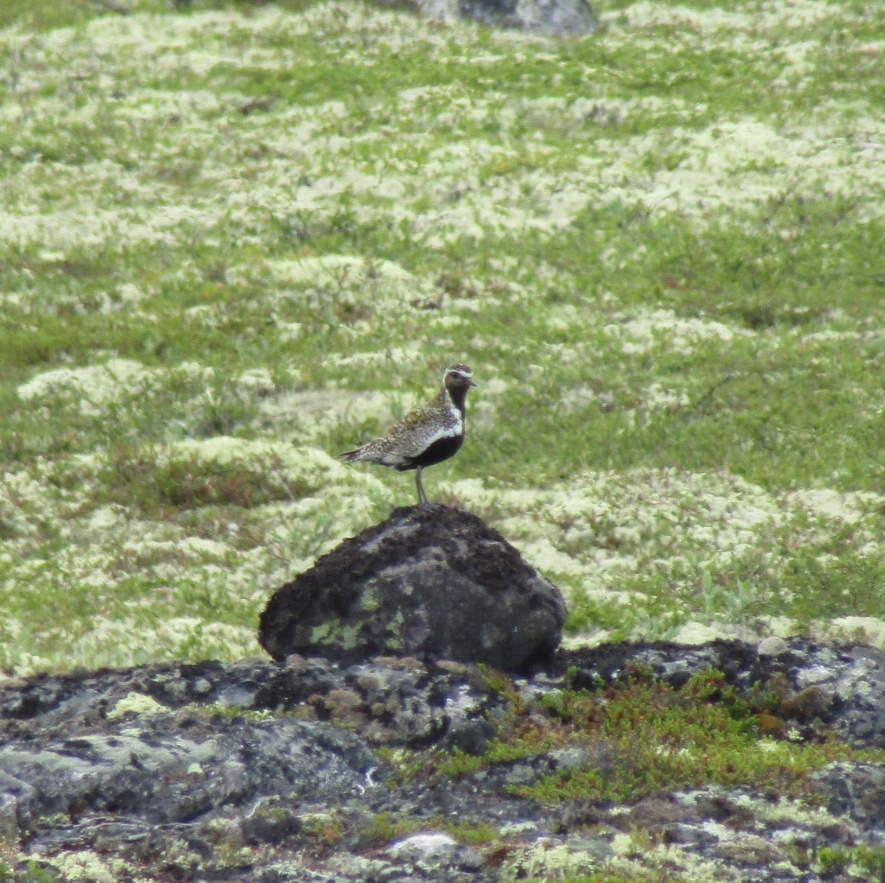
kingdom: Animalia
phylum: Chordata
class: Aves
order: Charadriiformes
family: Charadriidae
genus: Pluvialis
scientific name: Pluvialis apricaria
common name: European golden plover
